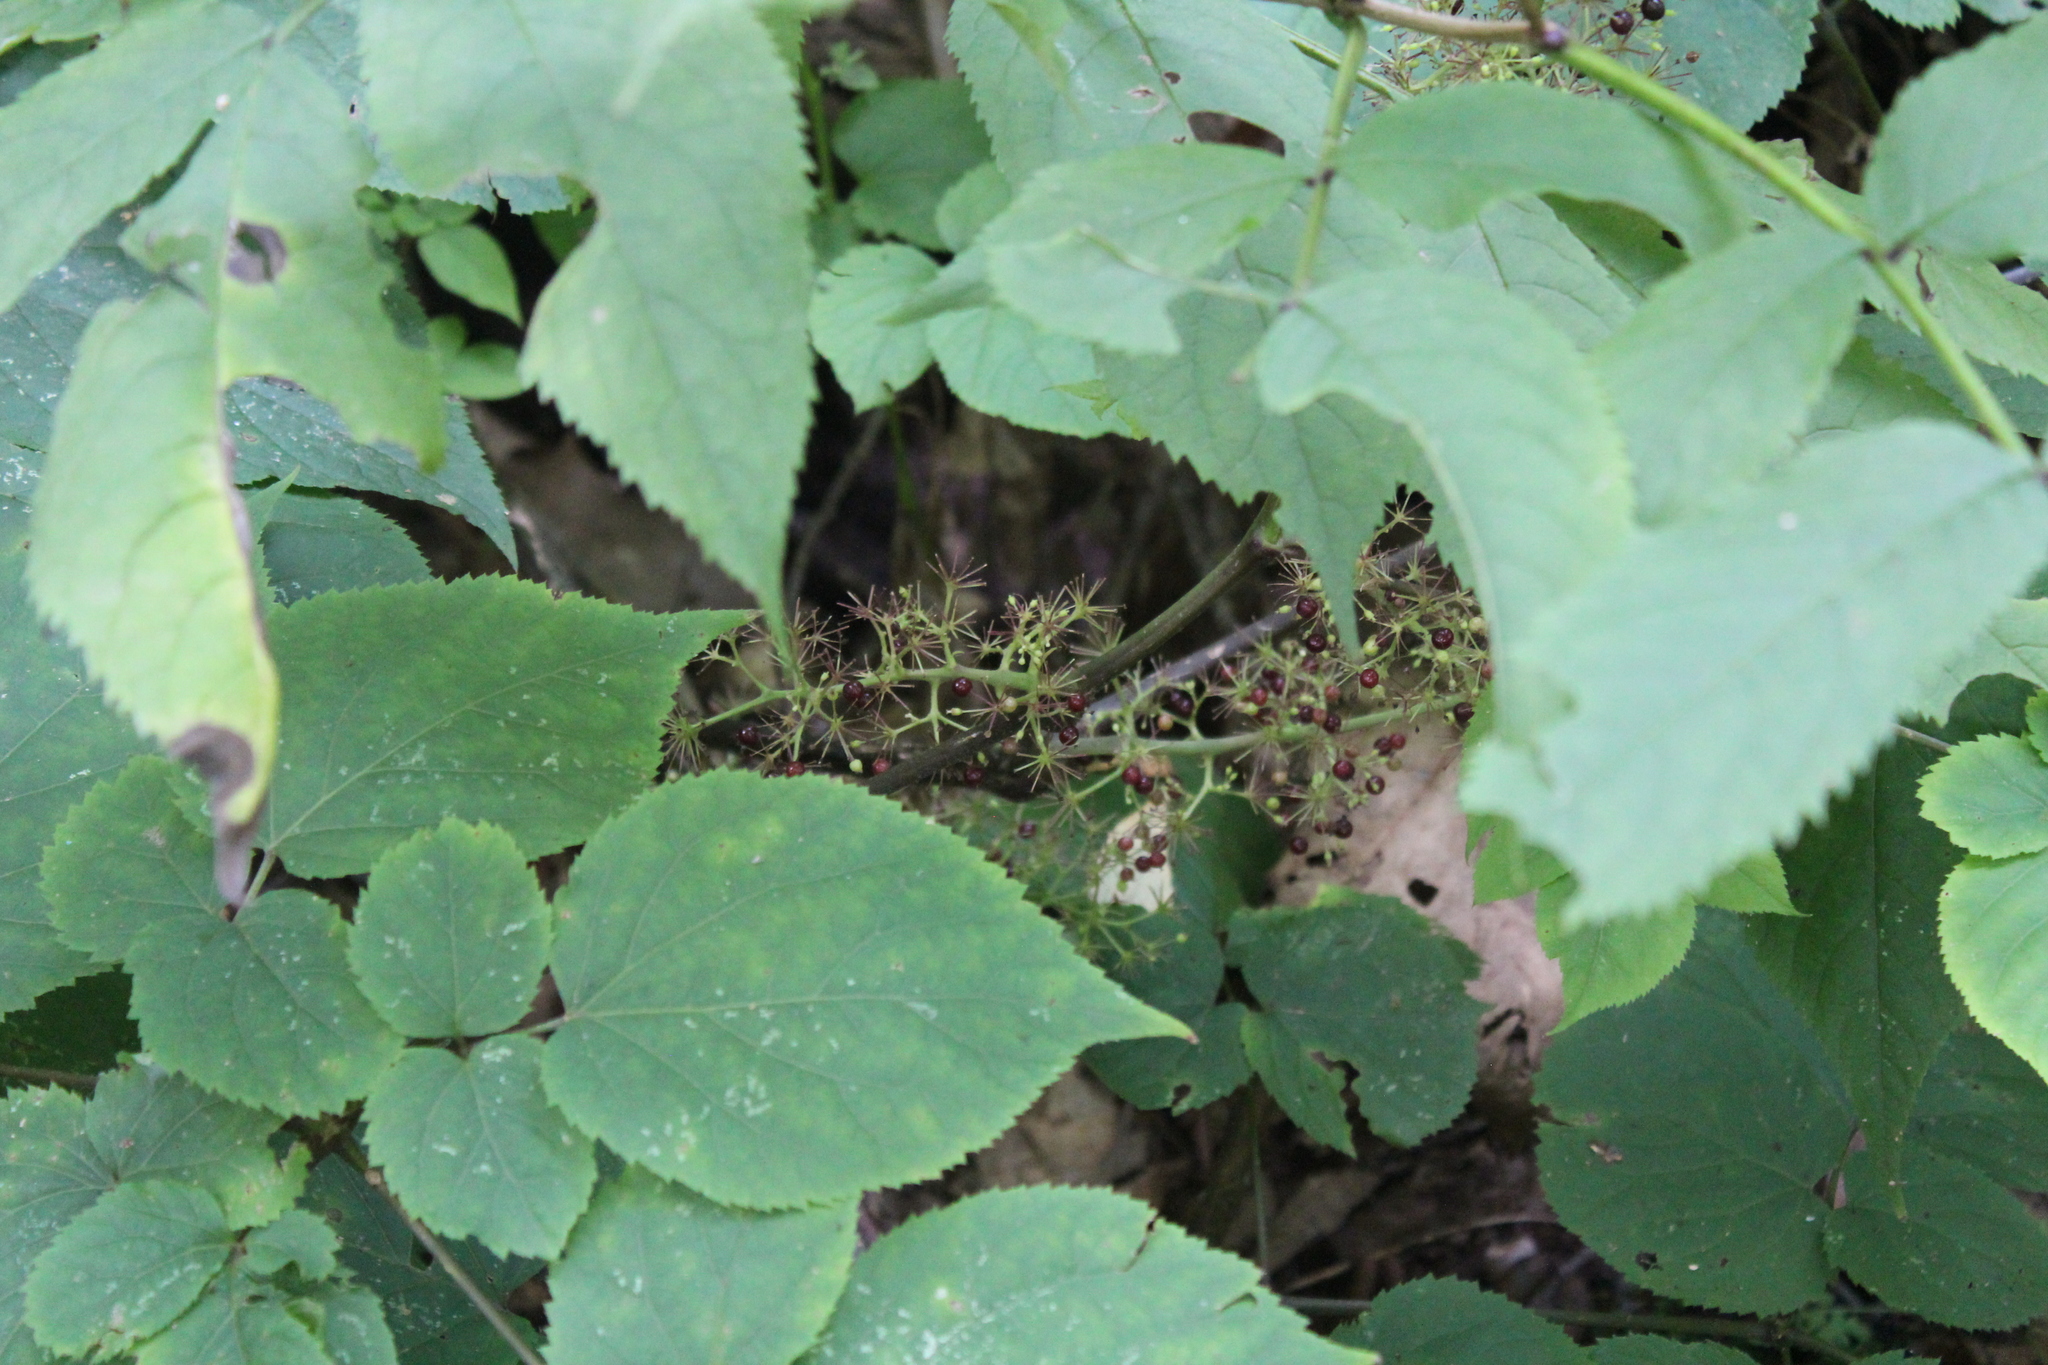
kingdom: Plantae
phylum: Tracheophyta
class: Magnoliopsida
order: Apiales
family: Araliaceae
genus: Aralia
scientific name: Aralia racemosa
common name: American-spikenard
